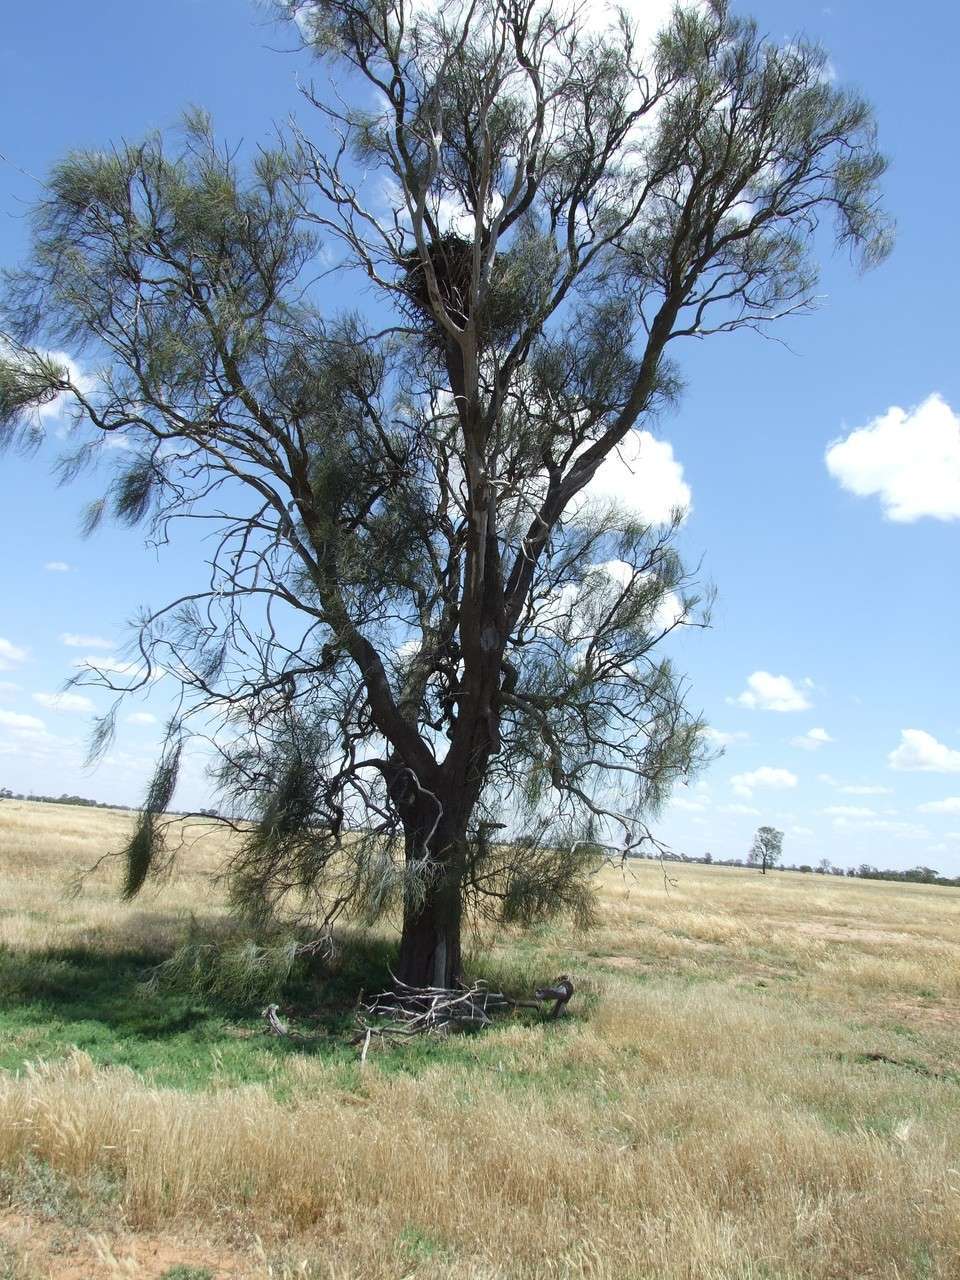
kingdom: Animalia
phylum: Chordata
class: Aves
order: Accipitriformes
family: Accipitridae
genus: Aquila
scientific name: Aquila audax
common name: Wedge-tailed eagle
